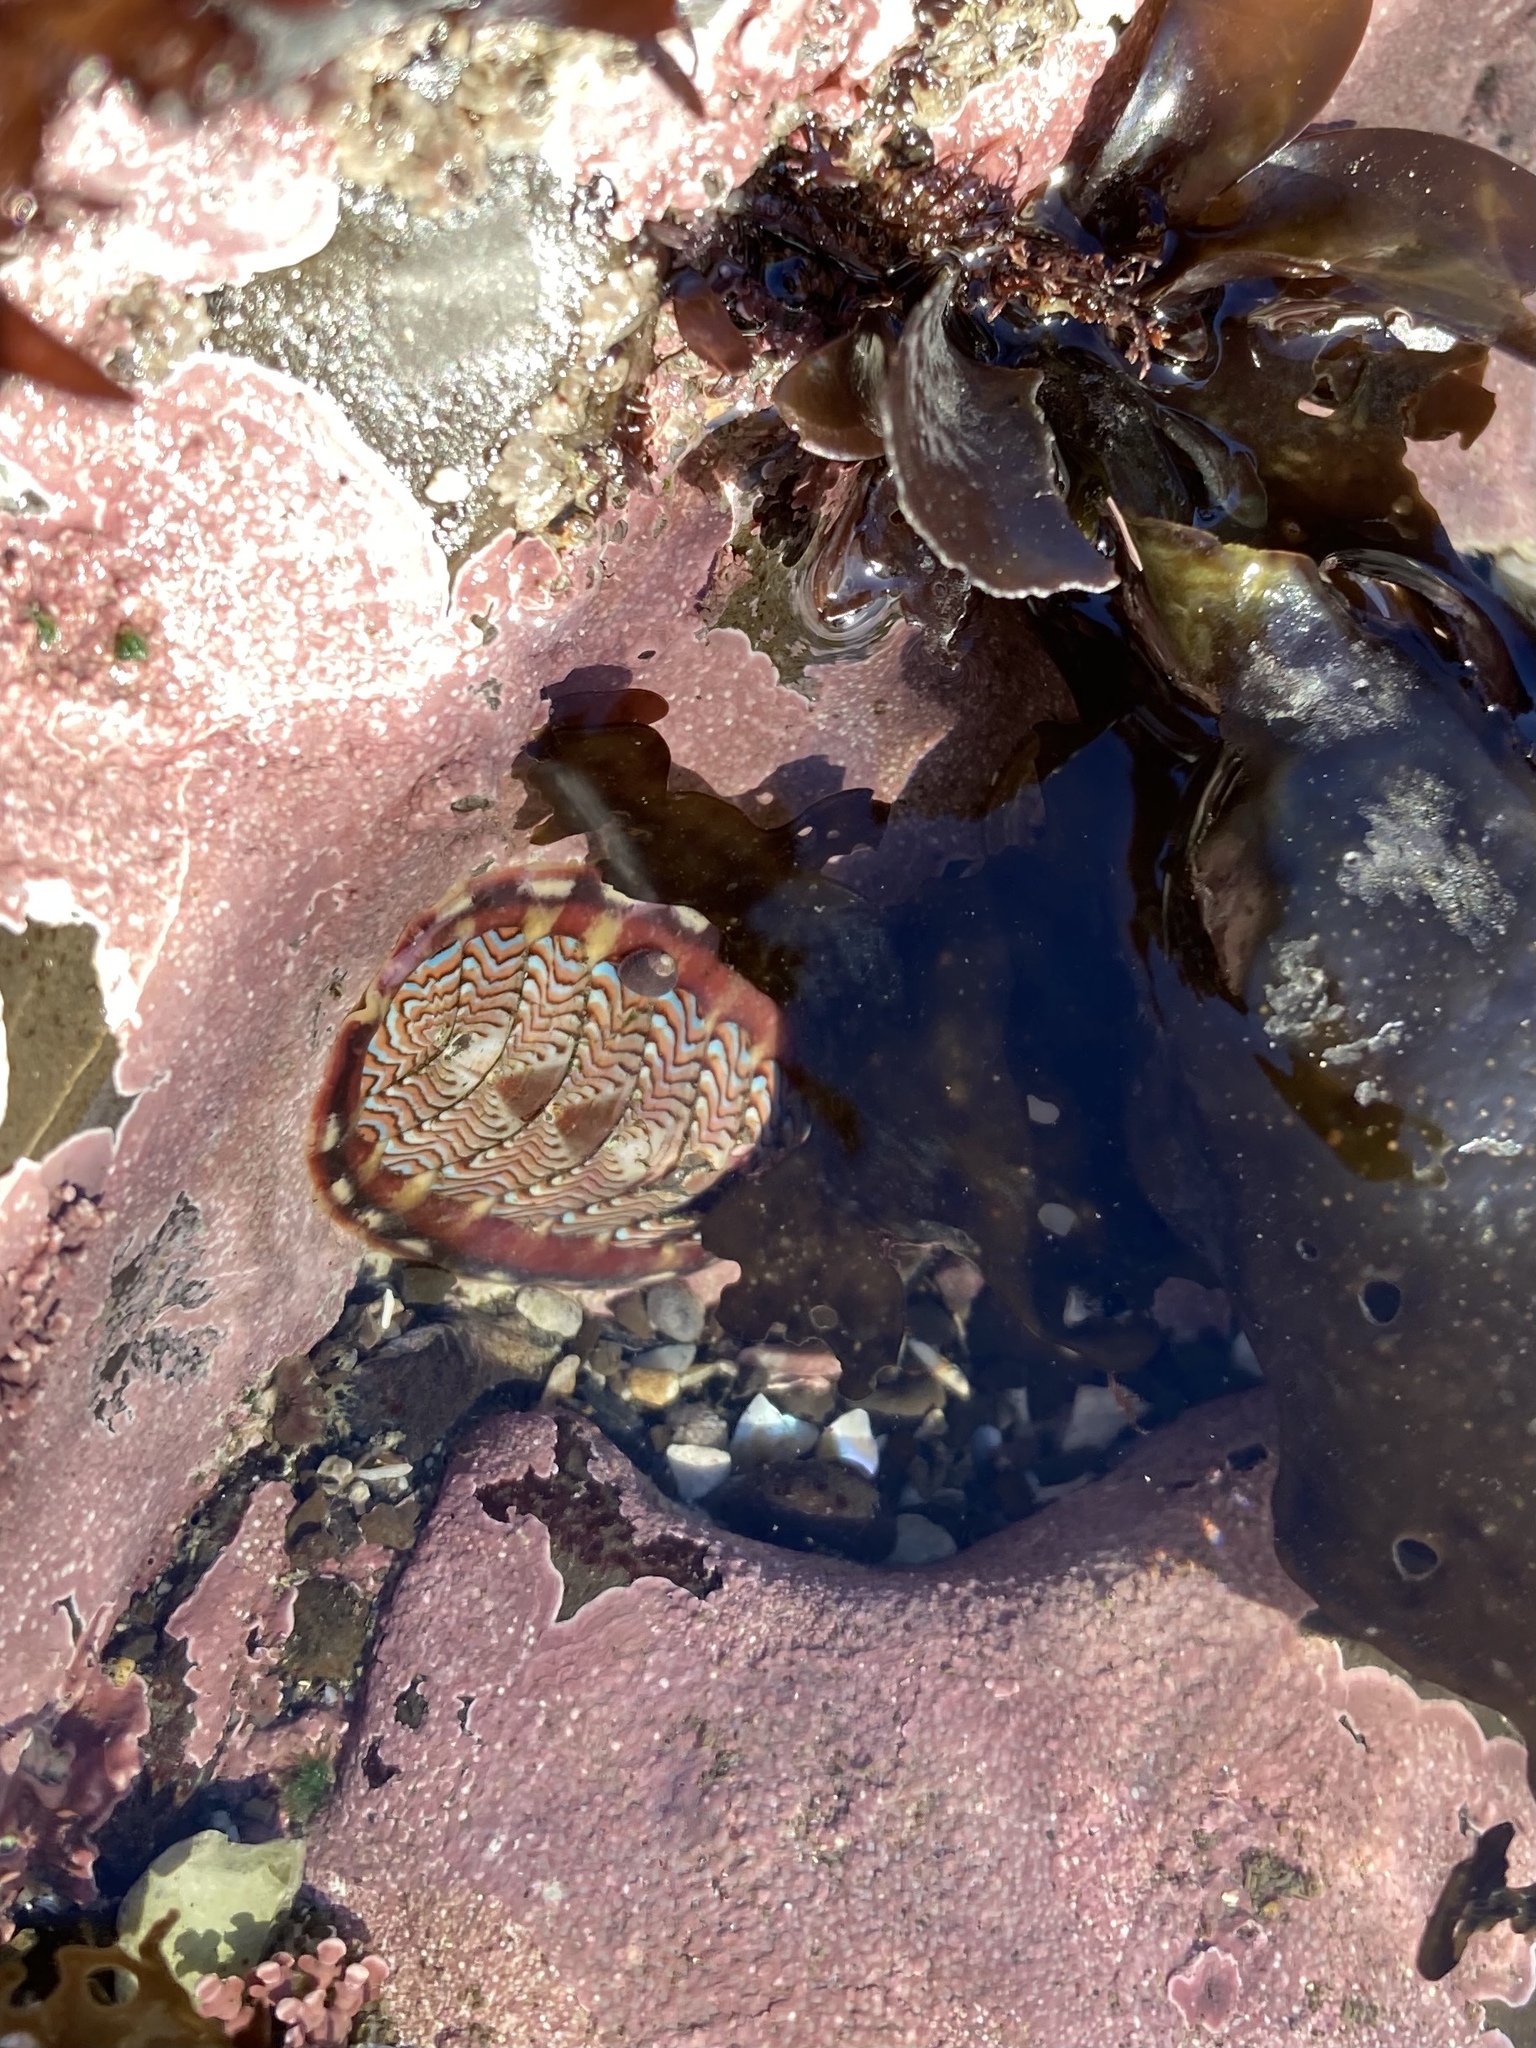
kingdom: Animalia
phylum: Mollusca
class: Polyplacophora
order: Chitonida
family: Tonicellidae
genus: Tonicella
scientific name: Tonicella lokii
